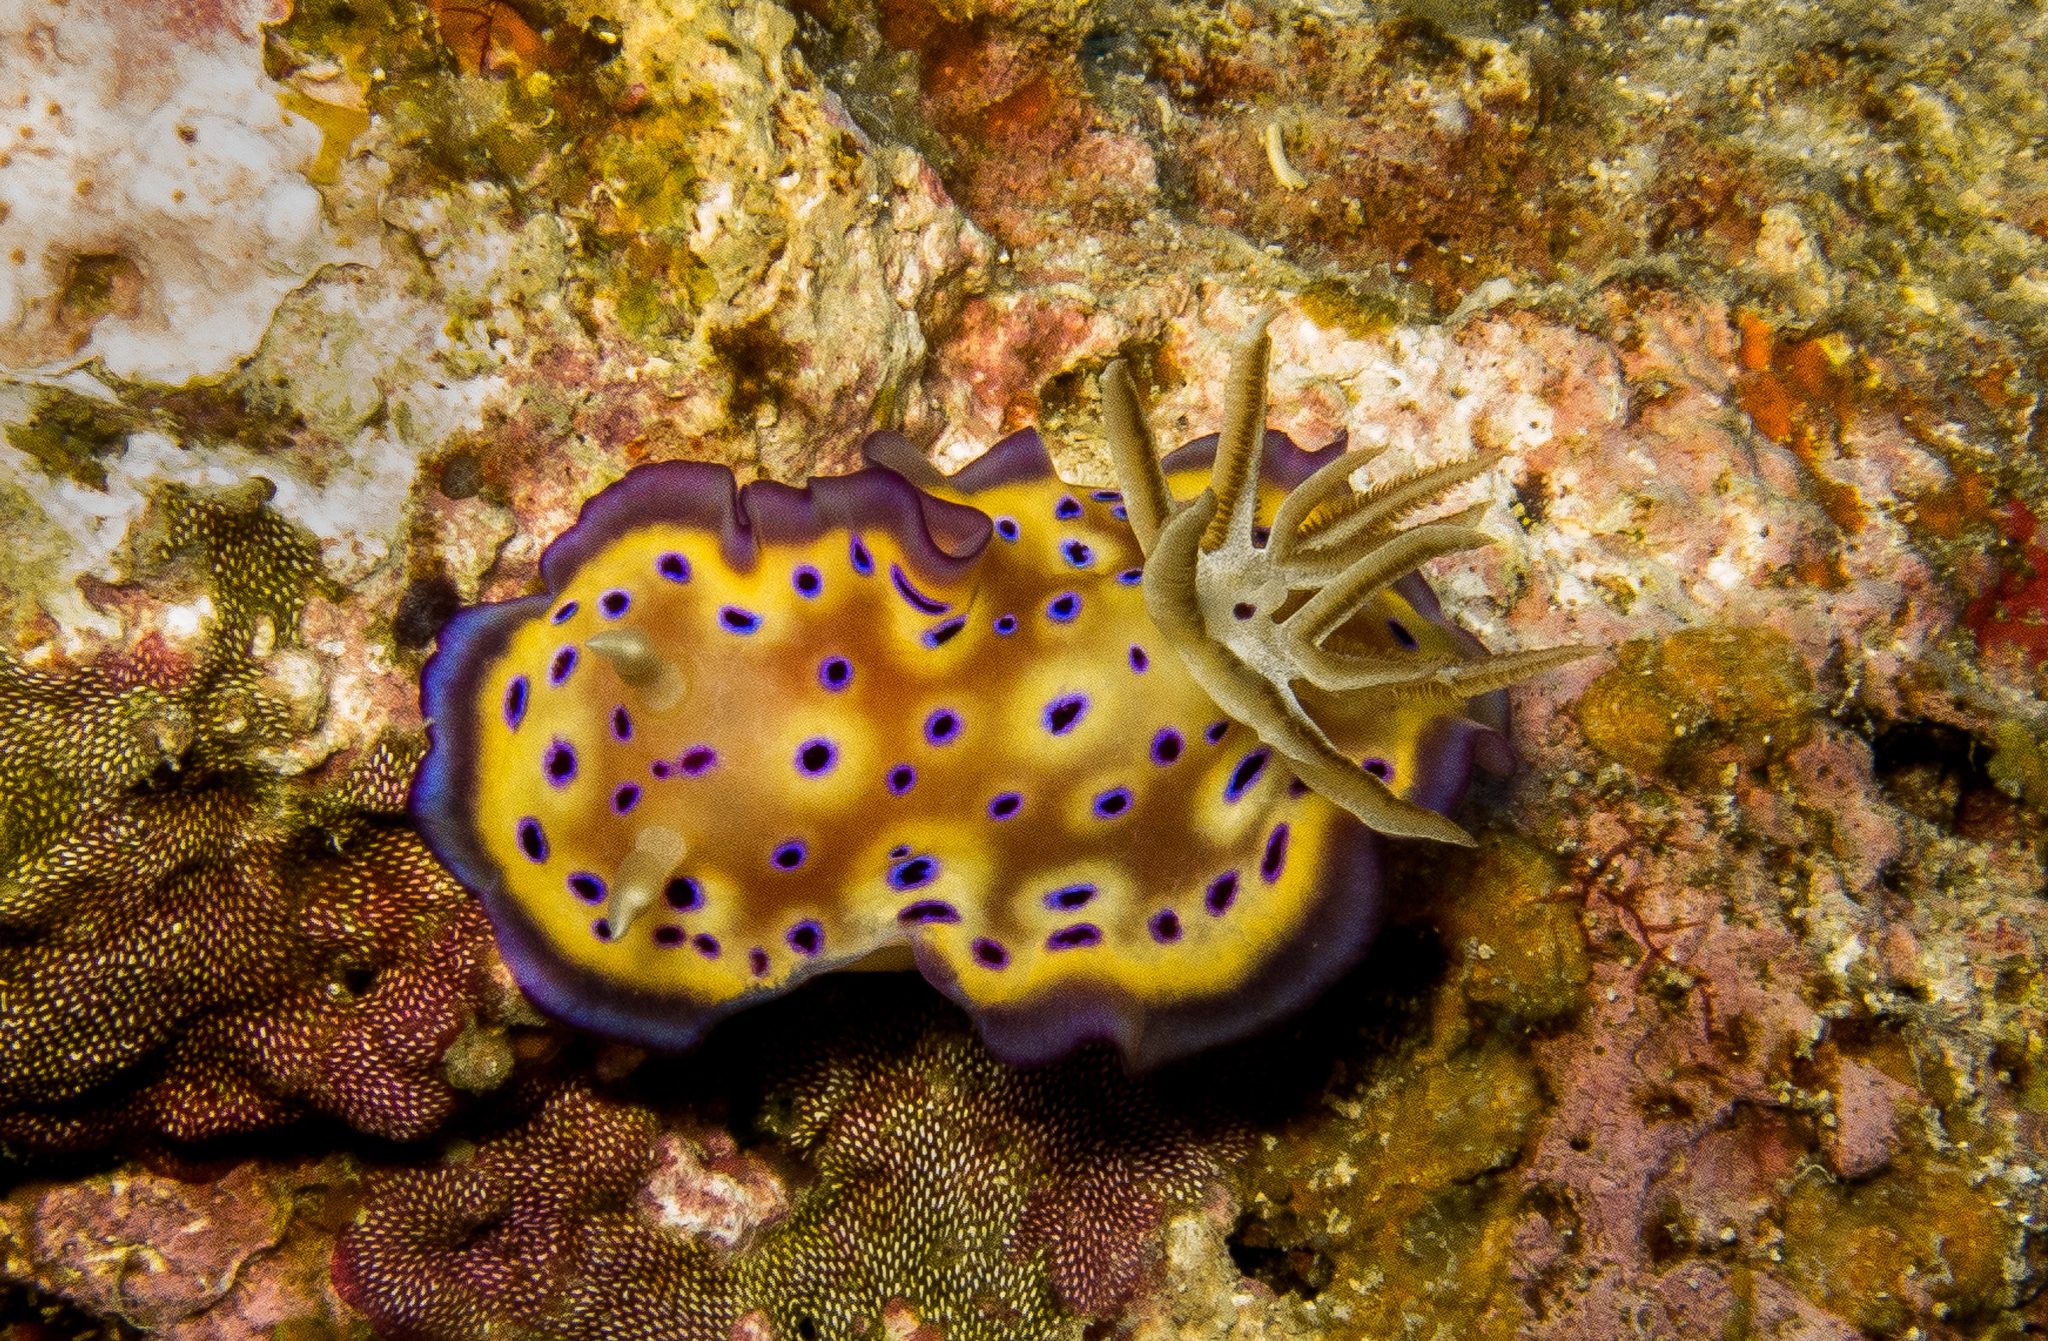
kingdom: Animalia
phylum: Mollusca
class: Gastropoda
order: Nudibranchia
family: Chromodorididae
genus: Goniobranchus
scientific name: Goniobranchus kuniei
